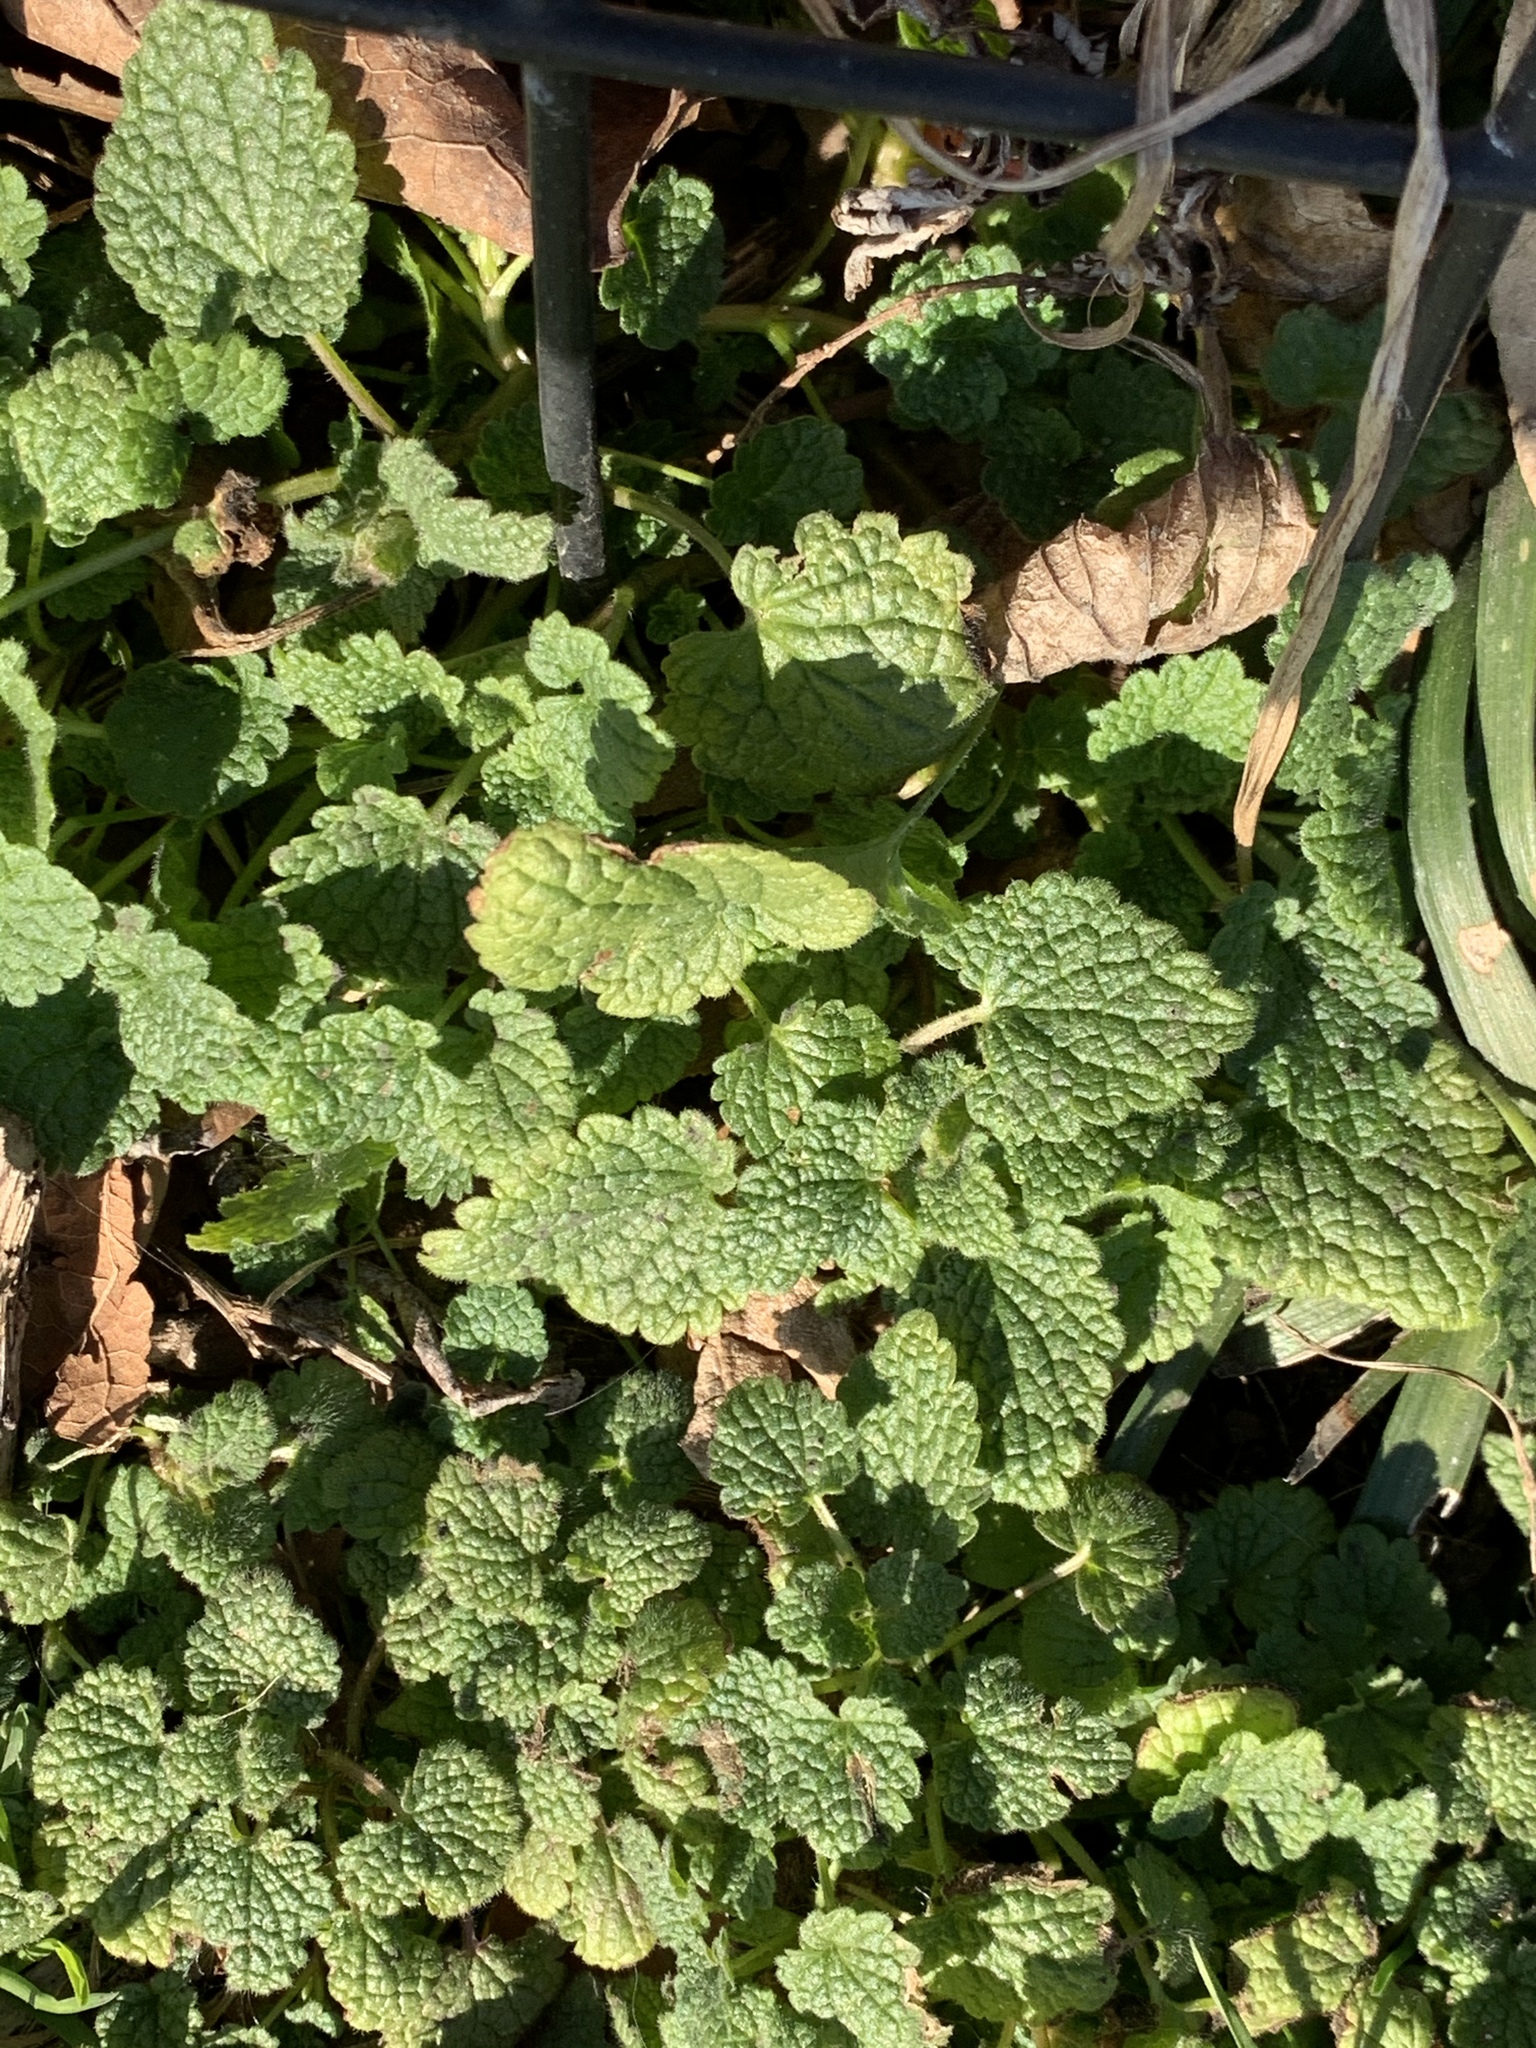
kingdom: Plantae
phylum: Tracheophyta
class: Magnoliopsida
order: Lamiales
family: Lamiaceae
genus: Lamium
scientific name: Lamium purpureum
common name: Red dead-nettle
